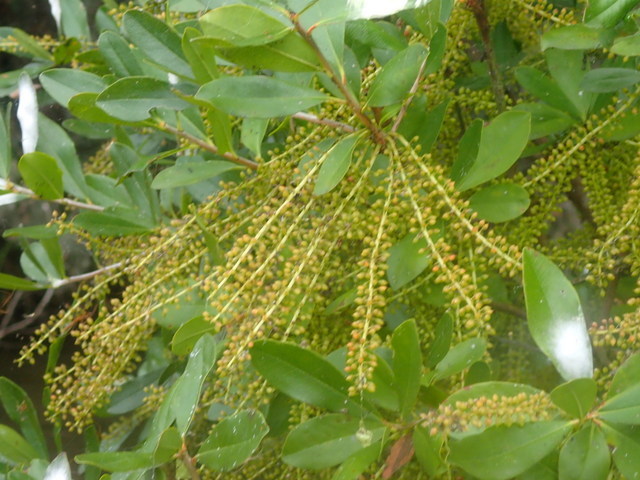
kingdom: Plantae
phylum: Tracheophyta
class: Magnoliopsida
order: Ericales
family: Cyrillaceae
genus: Cyrilla
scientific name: Cyrilla racemiflora
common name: Black titi
